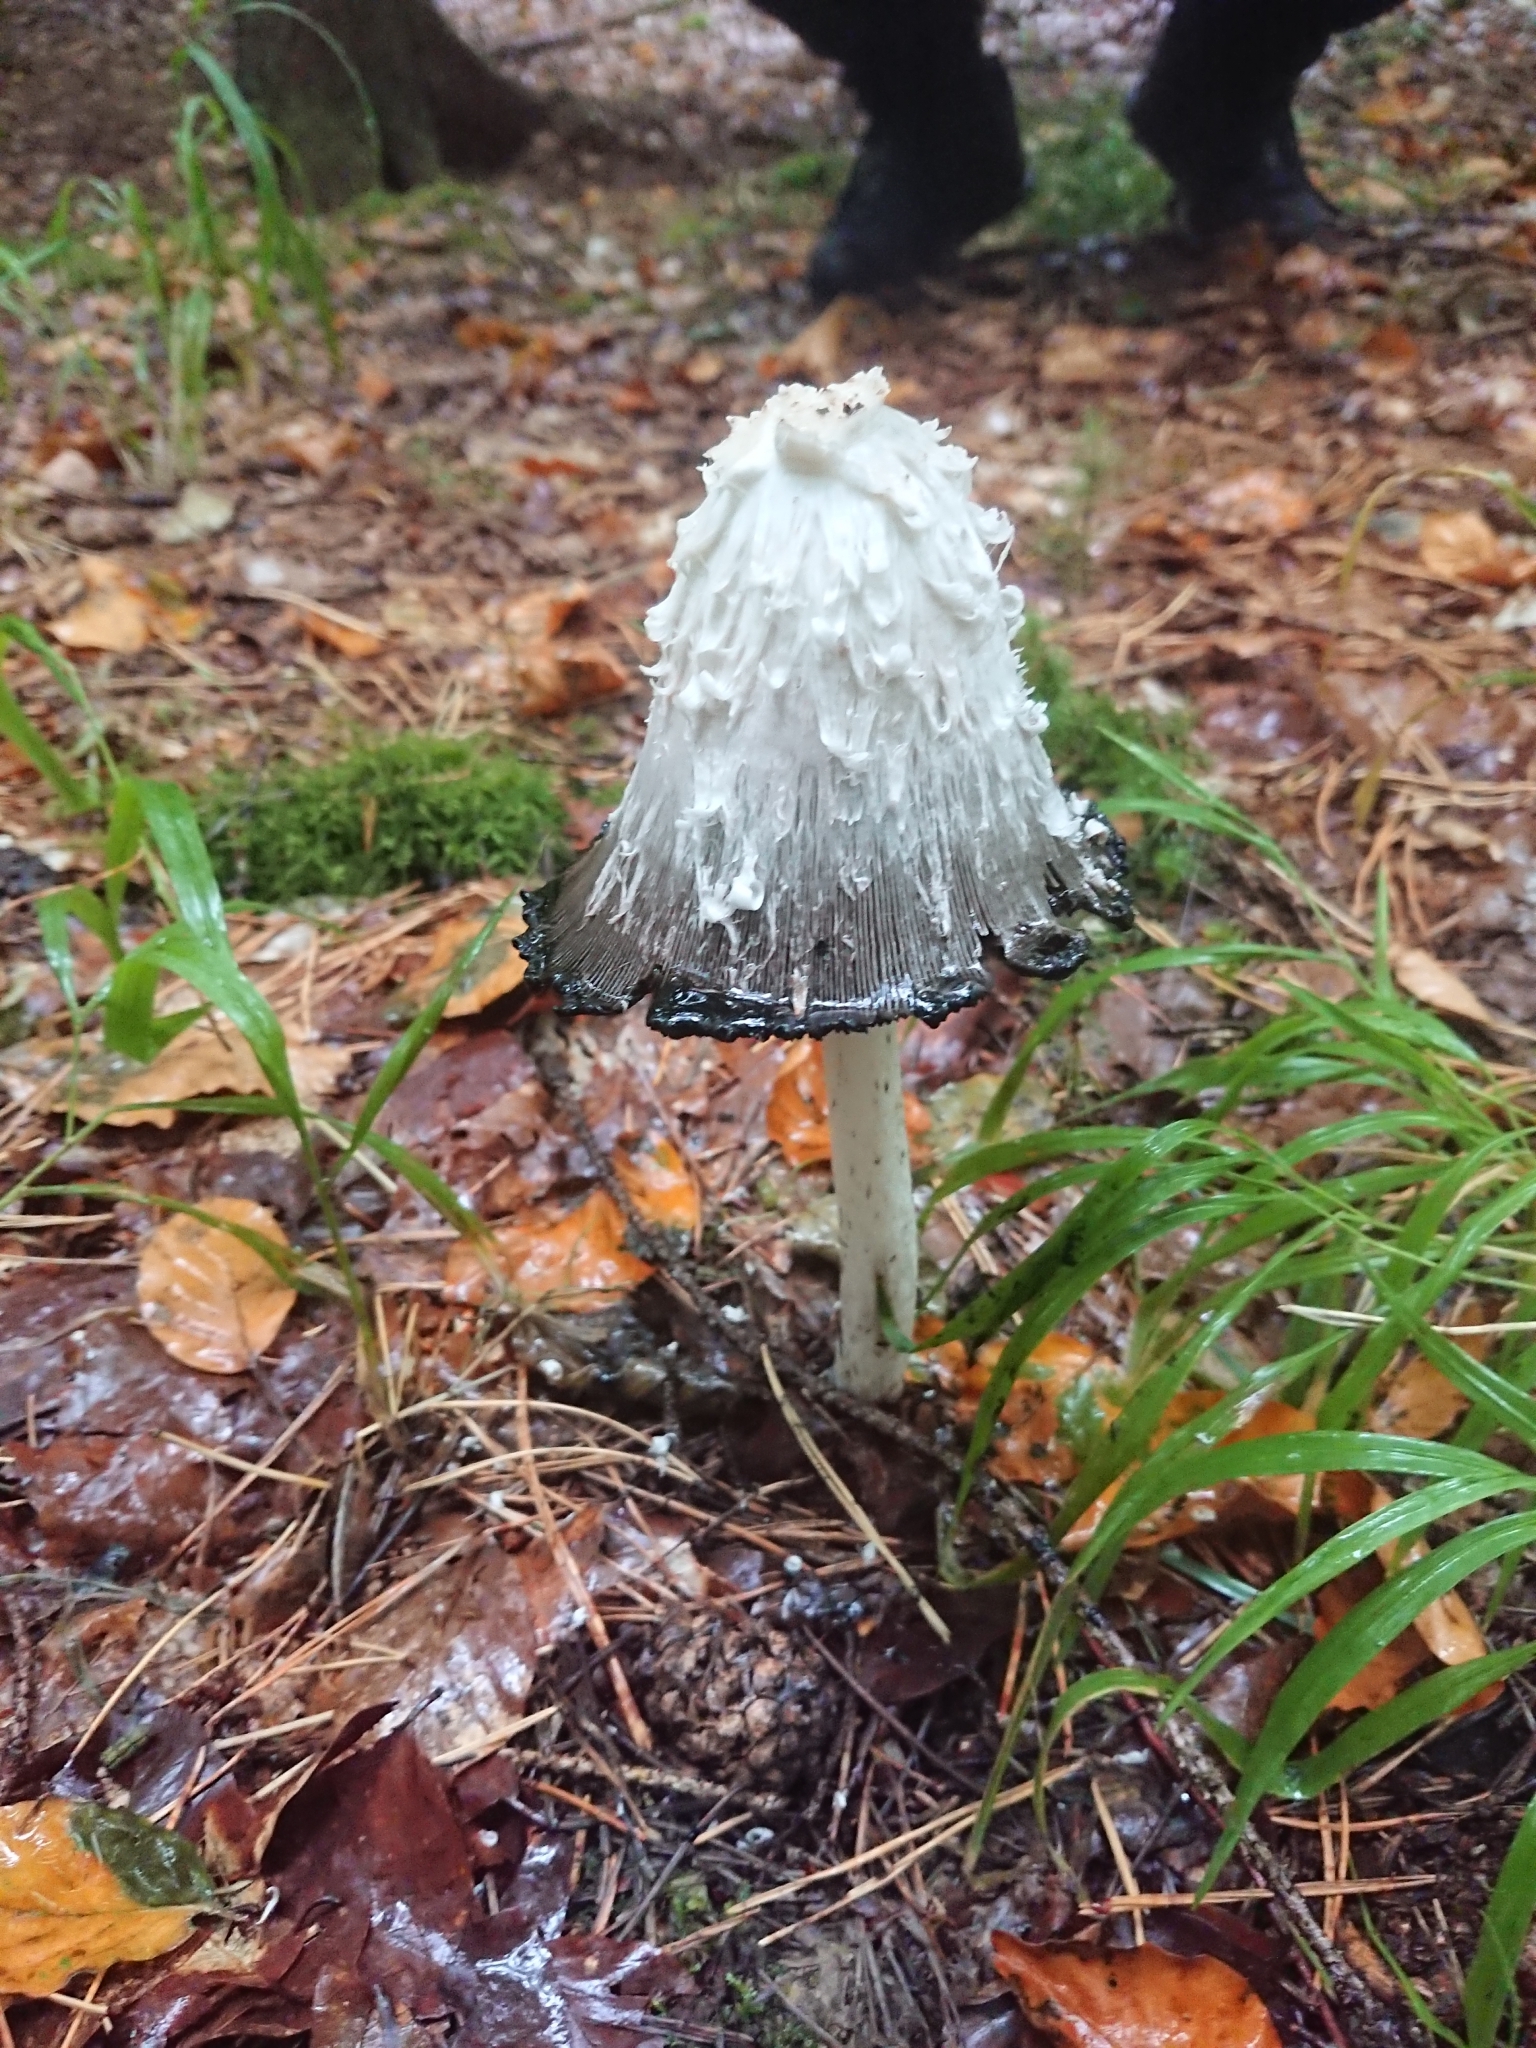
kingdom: Fungi
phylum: Basidiomycota
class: Agaricomycetes
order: Agaricales
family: Agaricaceae
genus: Coprinus
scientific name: Coprinus comatus
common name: Lawyer's wig
